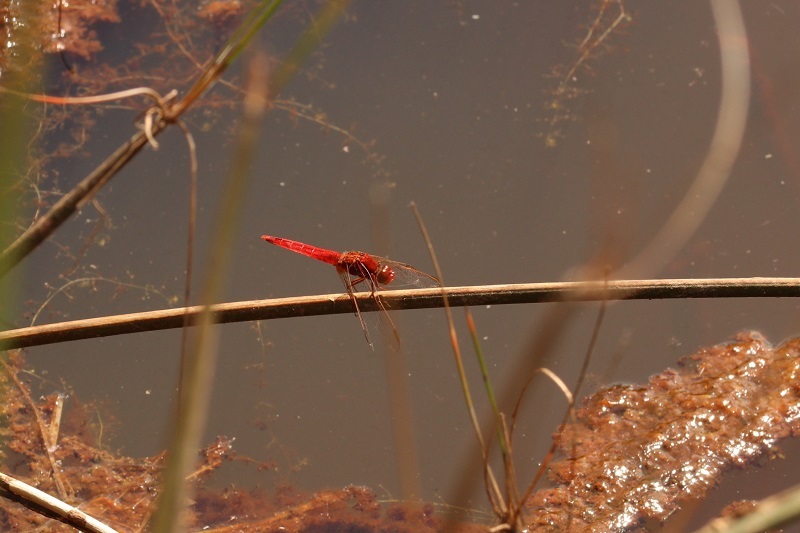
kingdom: Animalia
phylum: Arthropoda
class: Insecta
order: Odonata
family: Libellulidae
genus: Crocothemis
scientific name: Crocothemis erythraea
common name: Scarlet dragonfly
